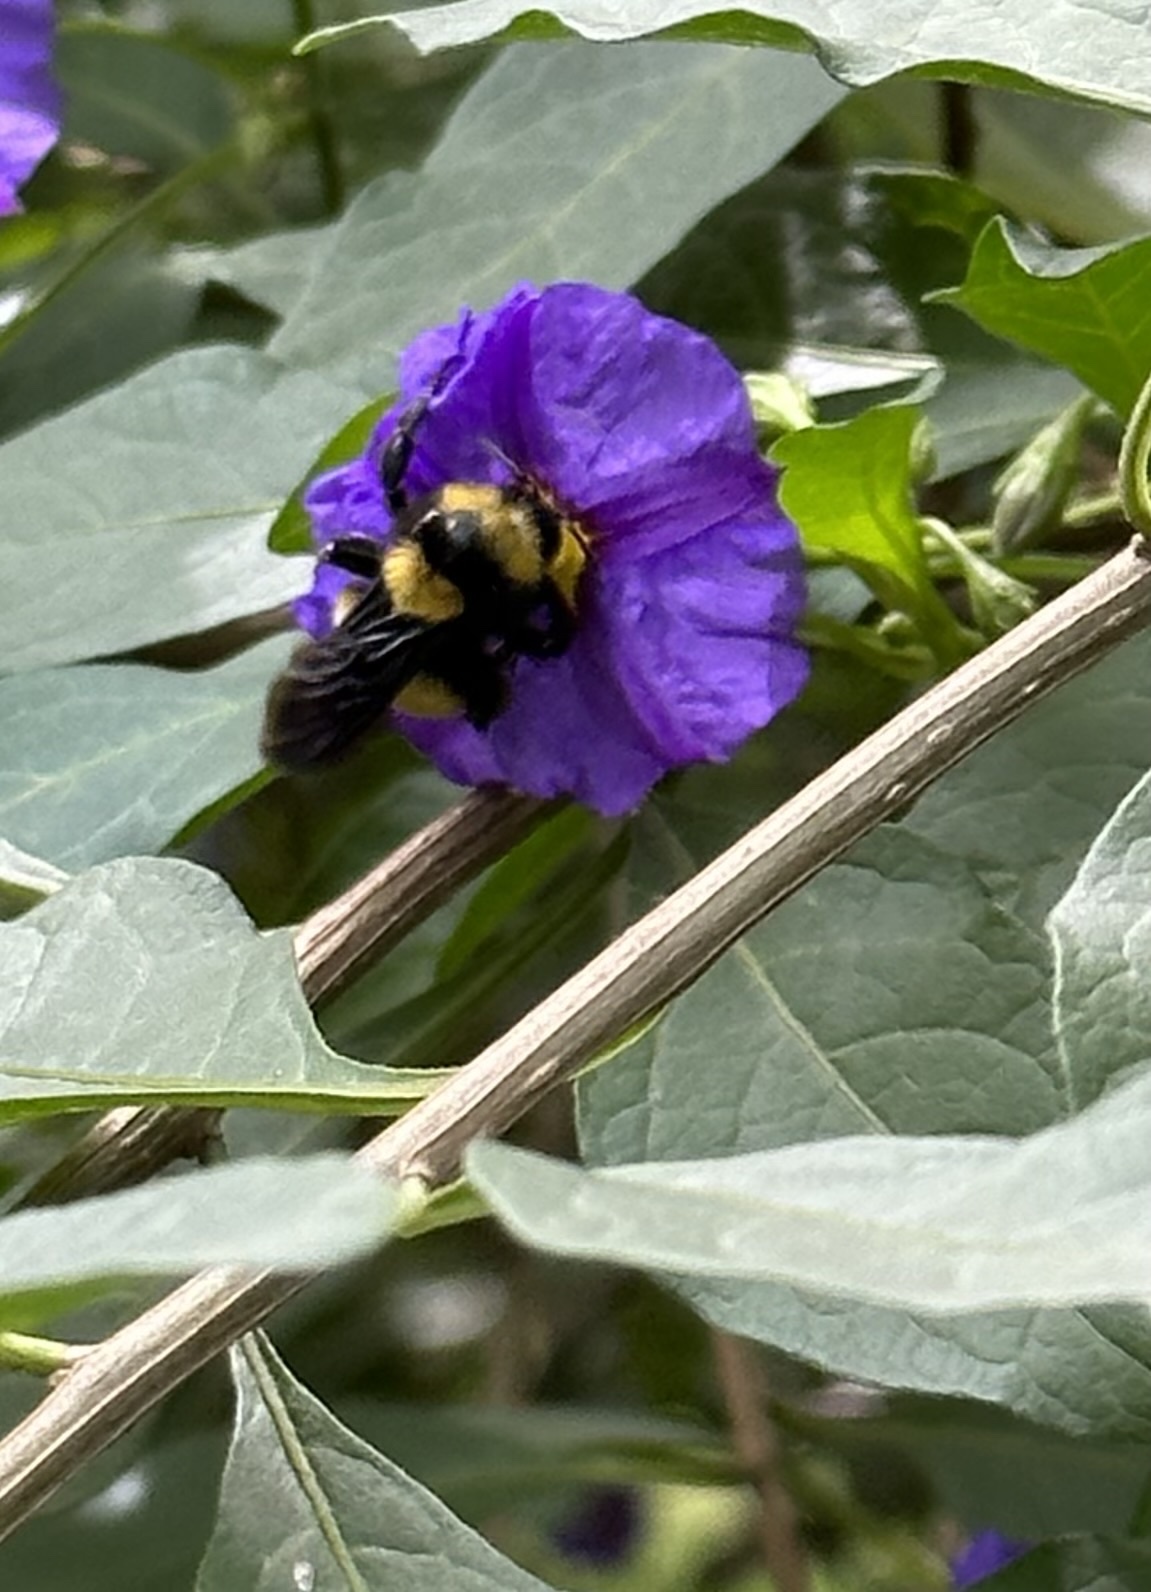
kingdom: Animalia
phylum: Arthropoda
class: Insecta
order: Hymenoptera
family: Apidae
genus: Bombus
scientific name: Bombus sonorus
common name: Sonoran bumble bee
